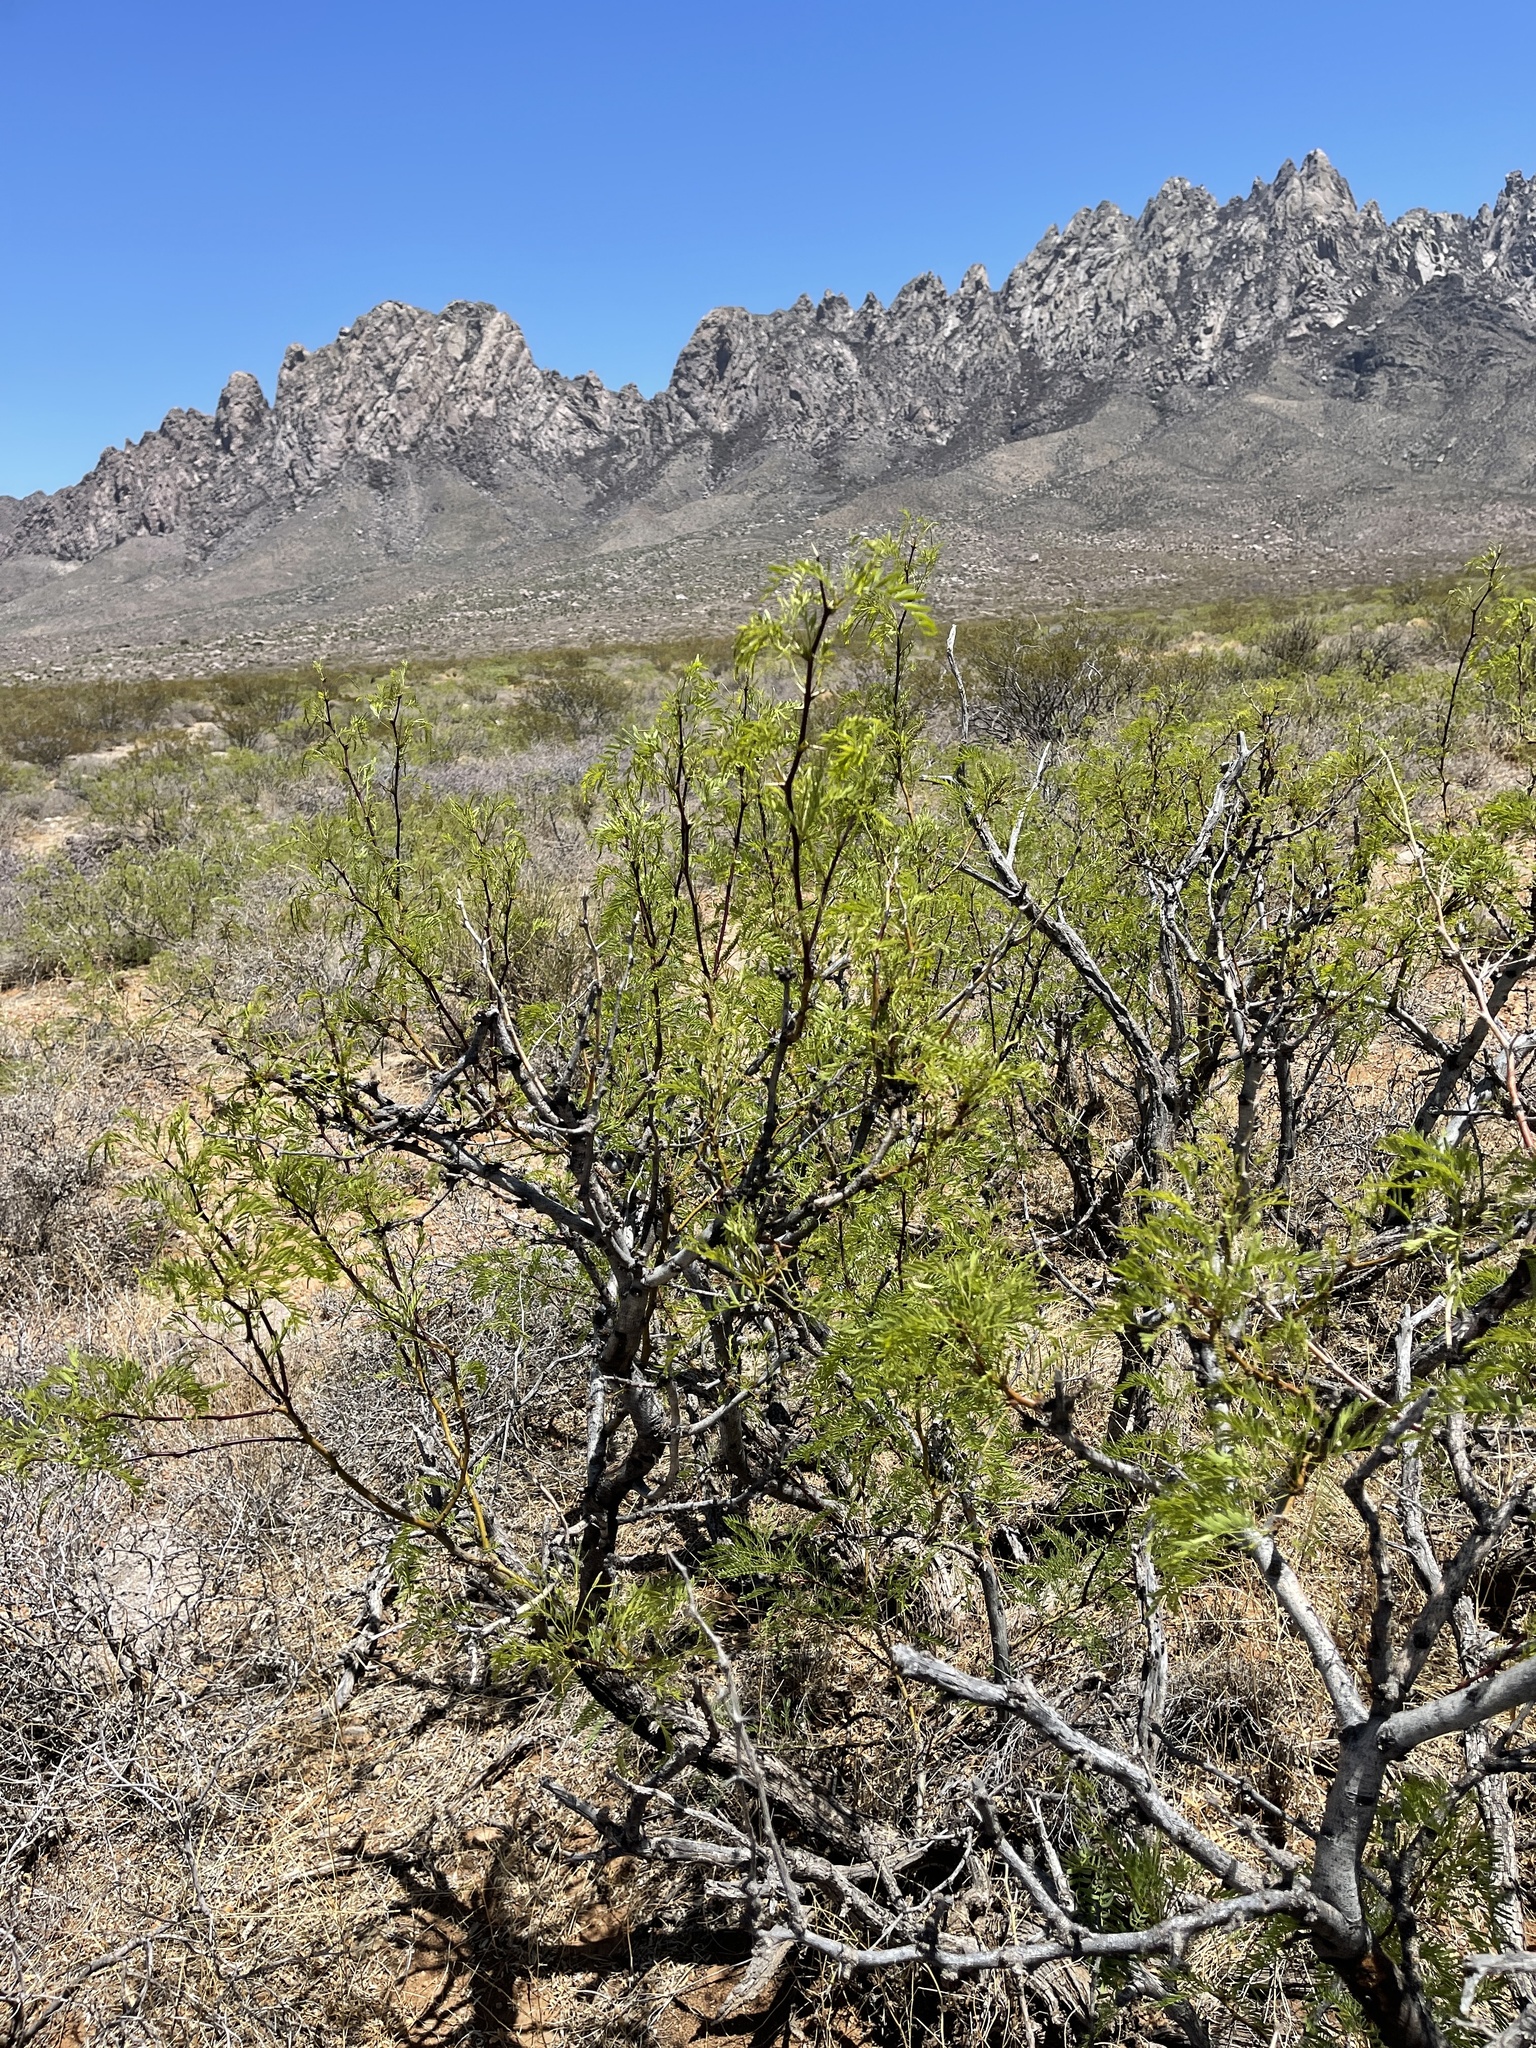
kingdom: Plantae
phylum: Tracheophyta
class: Magnoliopsida
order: Fabales
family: Fabaceae
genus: Prosopis
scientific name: Prosopis glandulosa
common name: Honey mesquite
